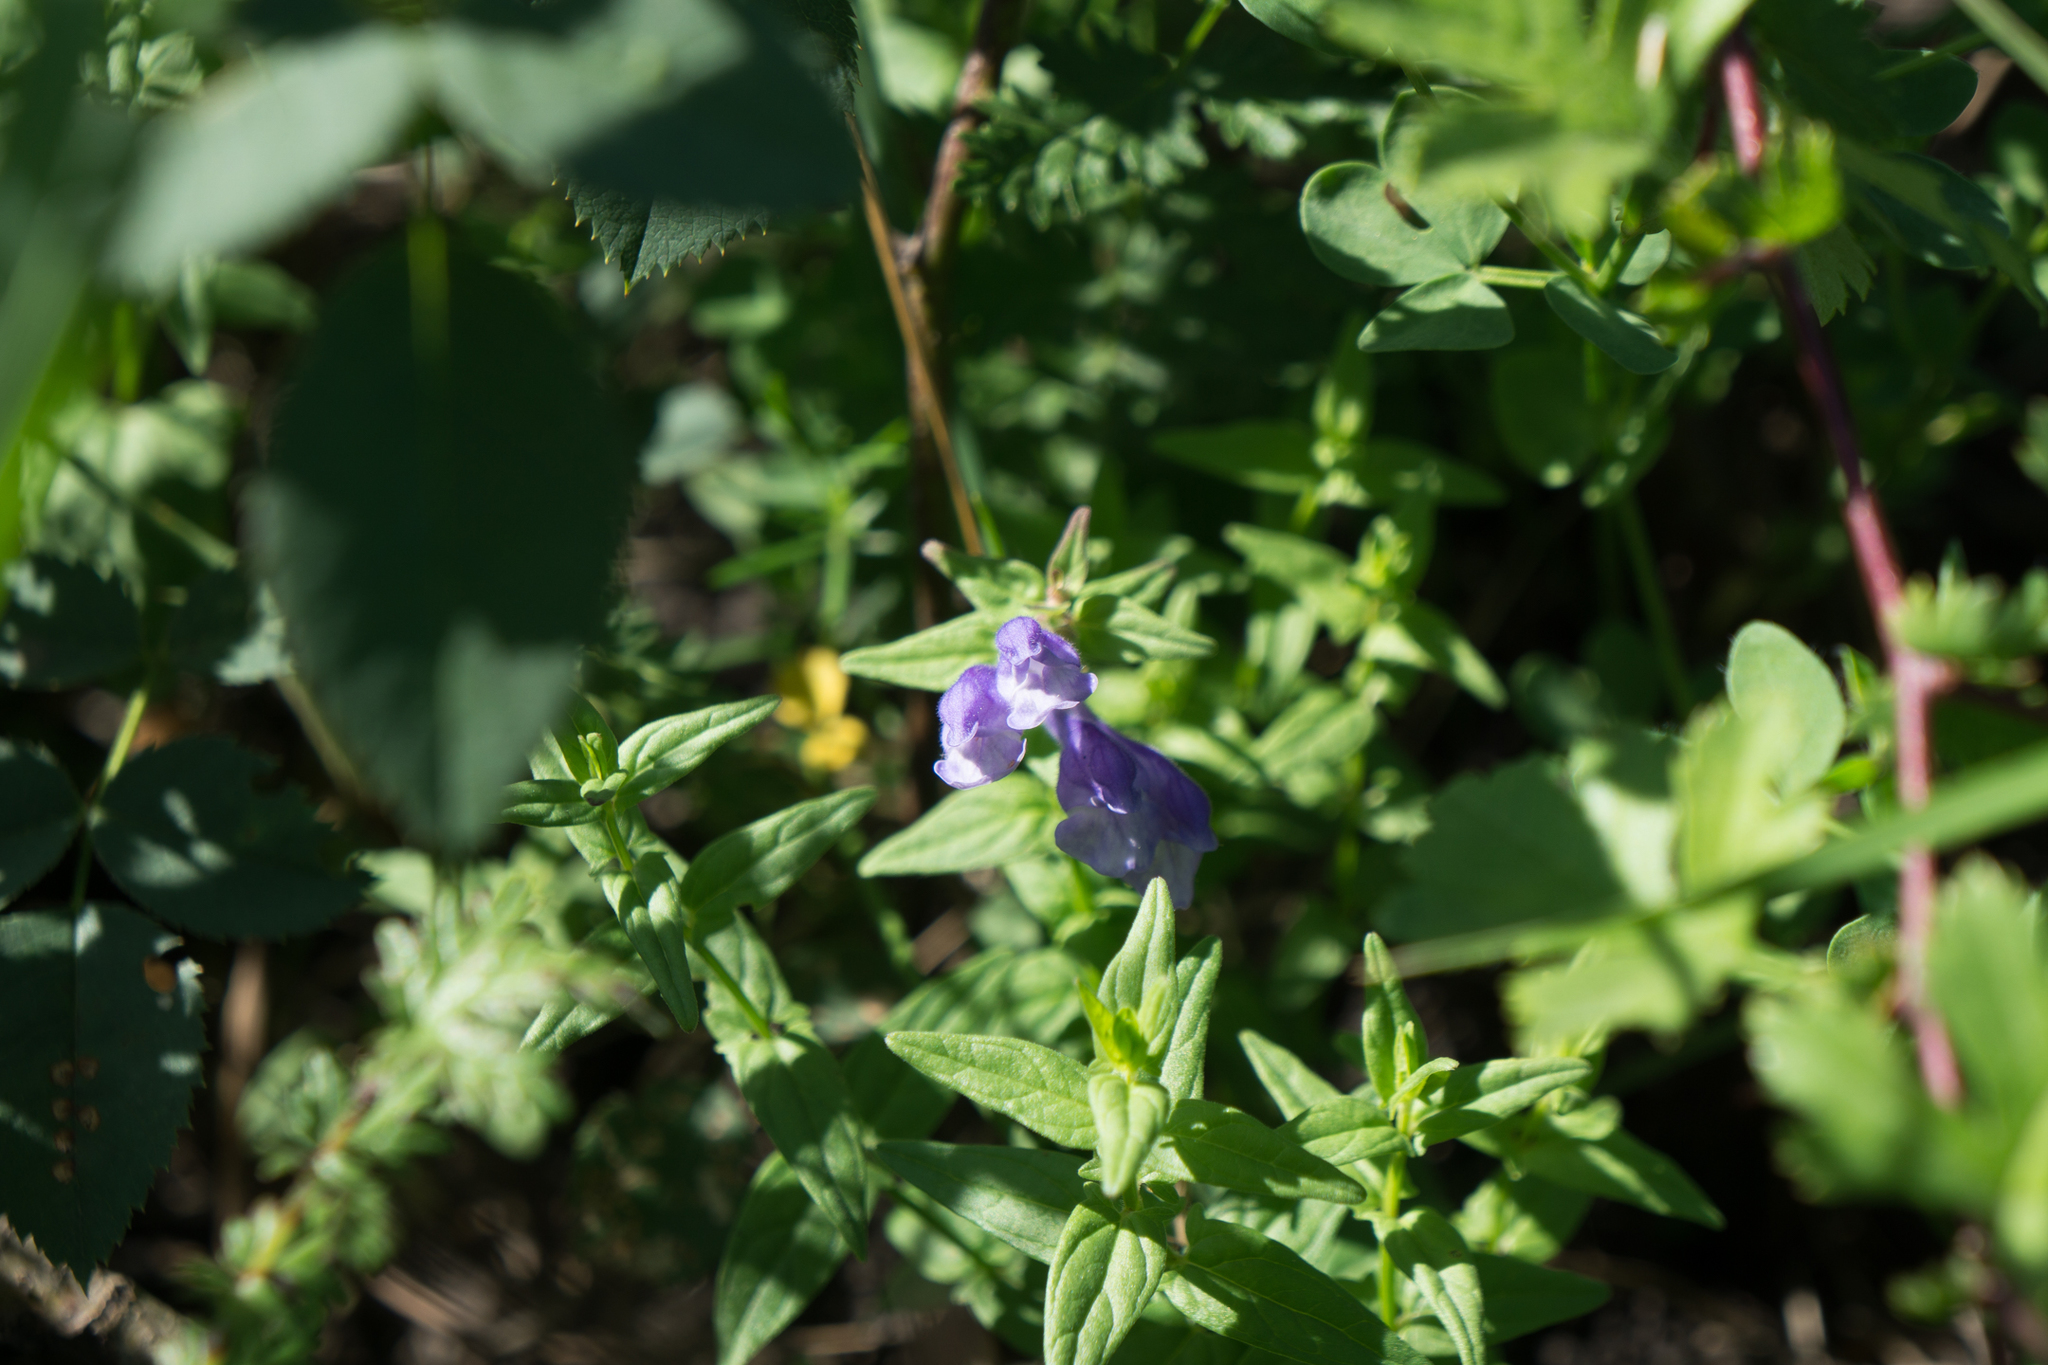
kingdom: Plantae
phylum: Tracheophyta
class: Magnoliopsida
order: Lamiales
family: Lamiaceae
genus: Scutellaria
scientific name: Scutellaria hastifolia
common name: Norfolk skullcap
